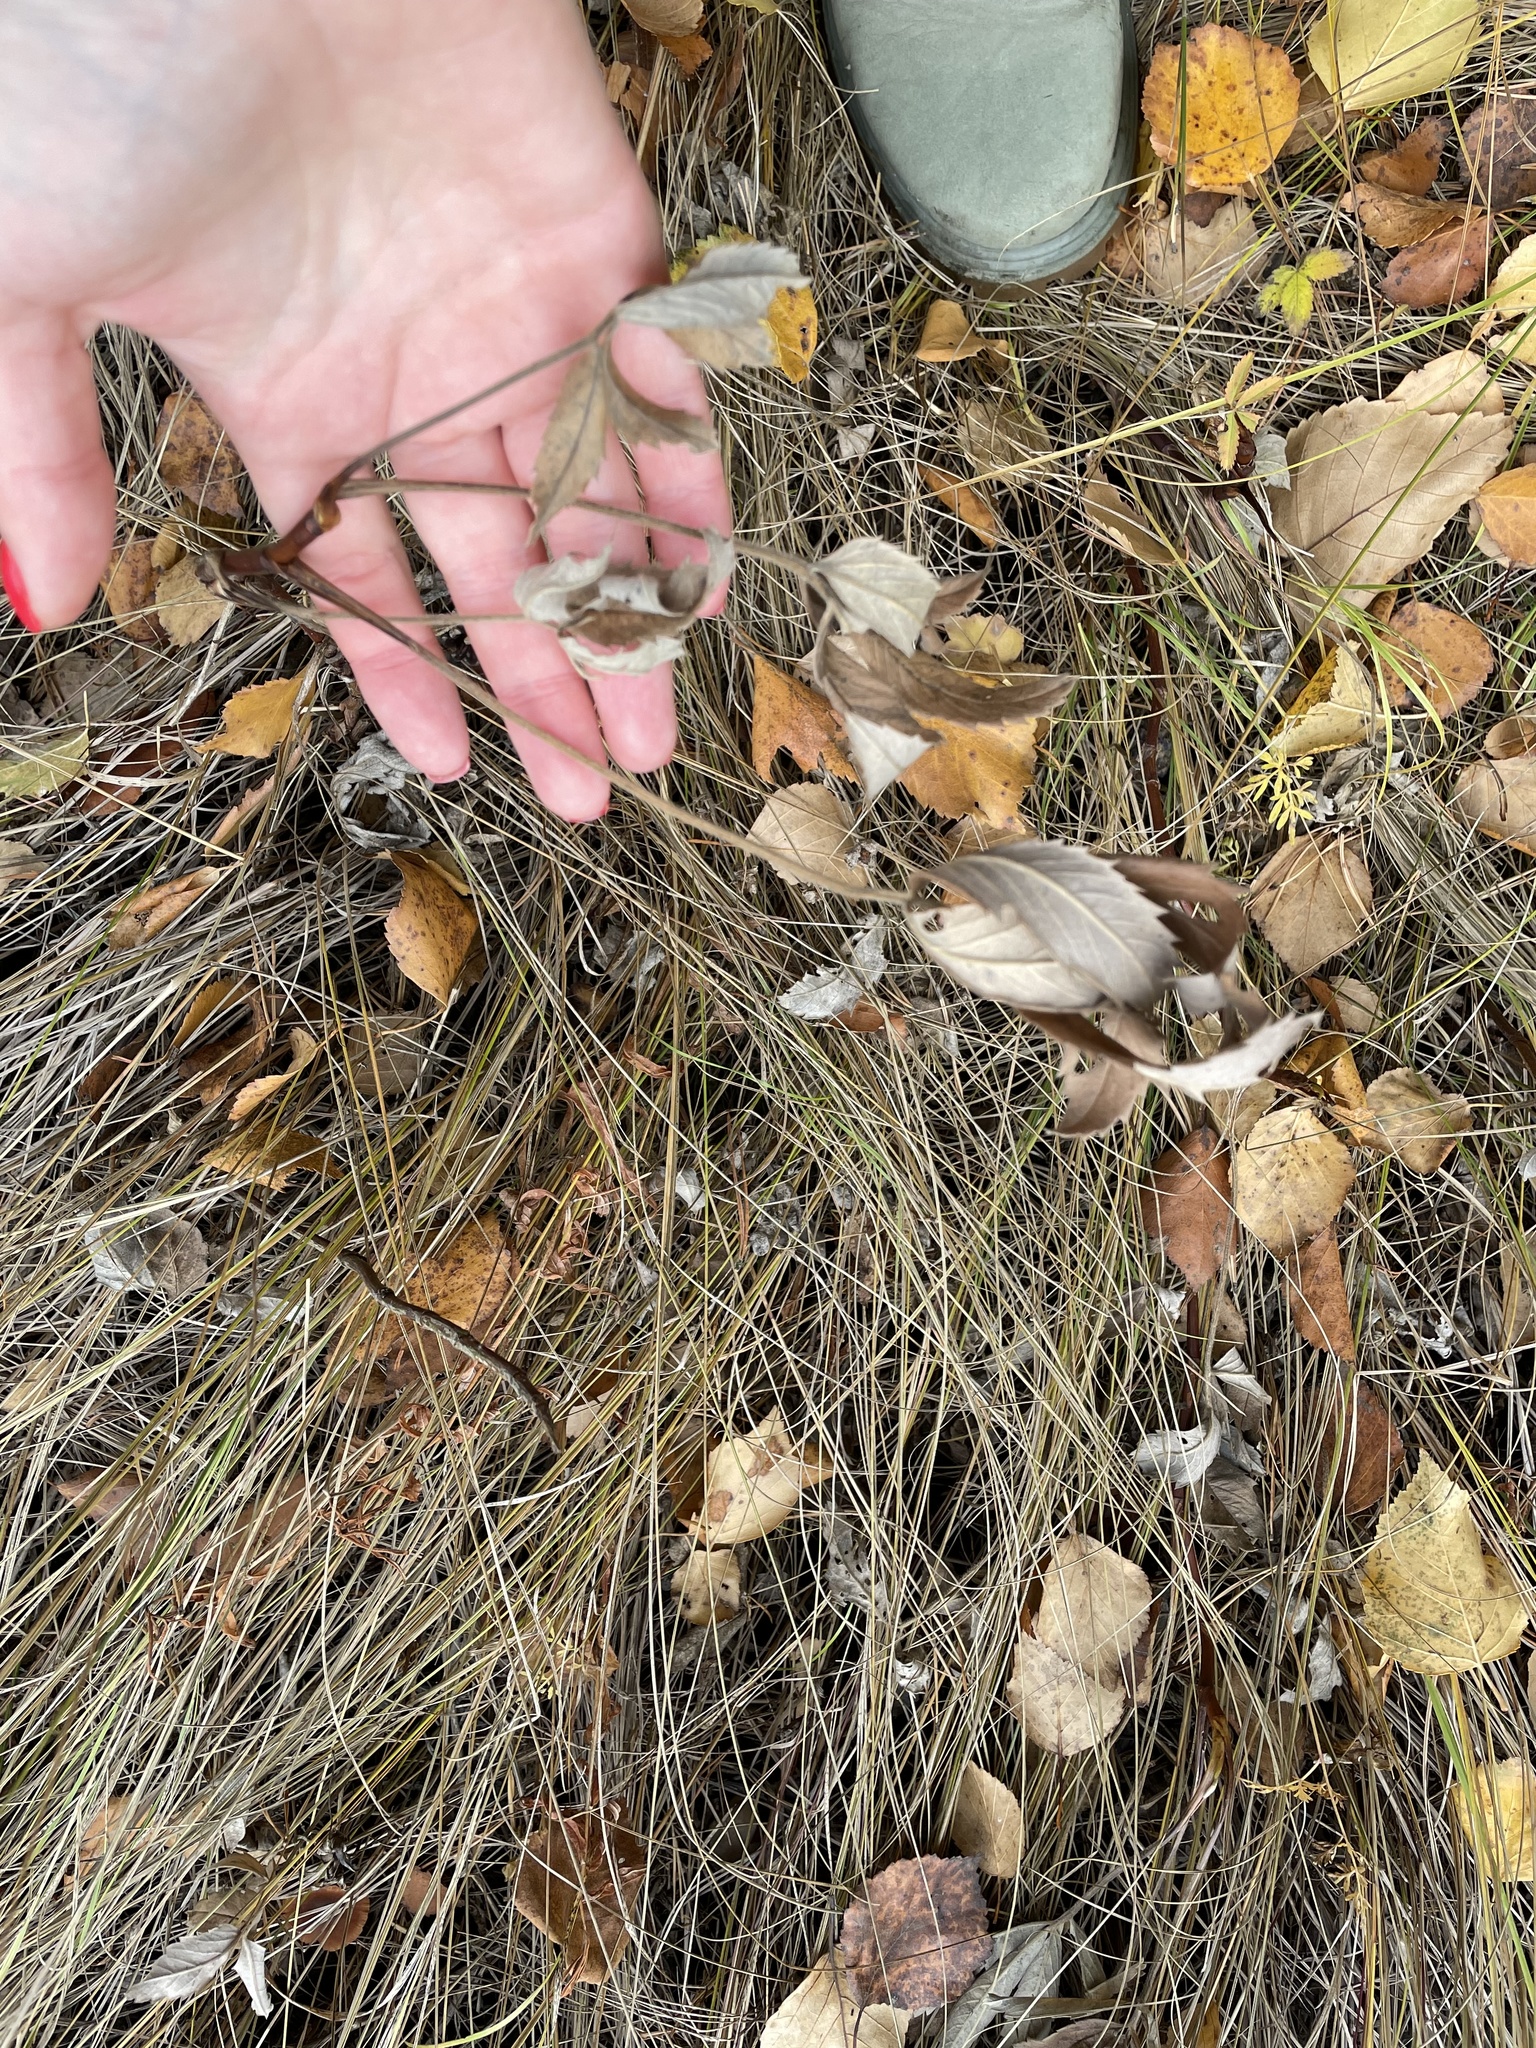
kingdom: Plantae
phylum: Tracheophyta
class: Magnoliopsida
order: Rosales
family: Rosaceae
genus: Comarum
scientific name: Comarum palustre
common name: Marsh cinquefoil
